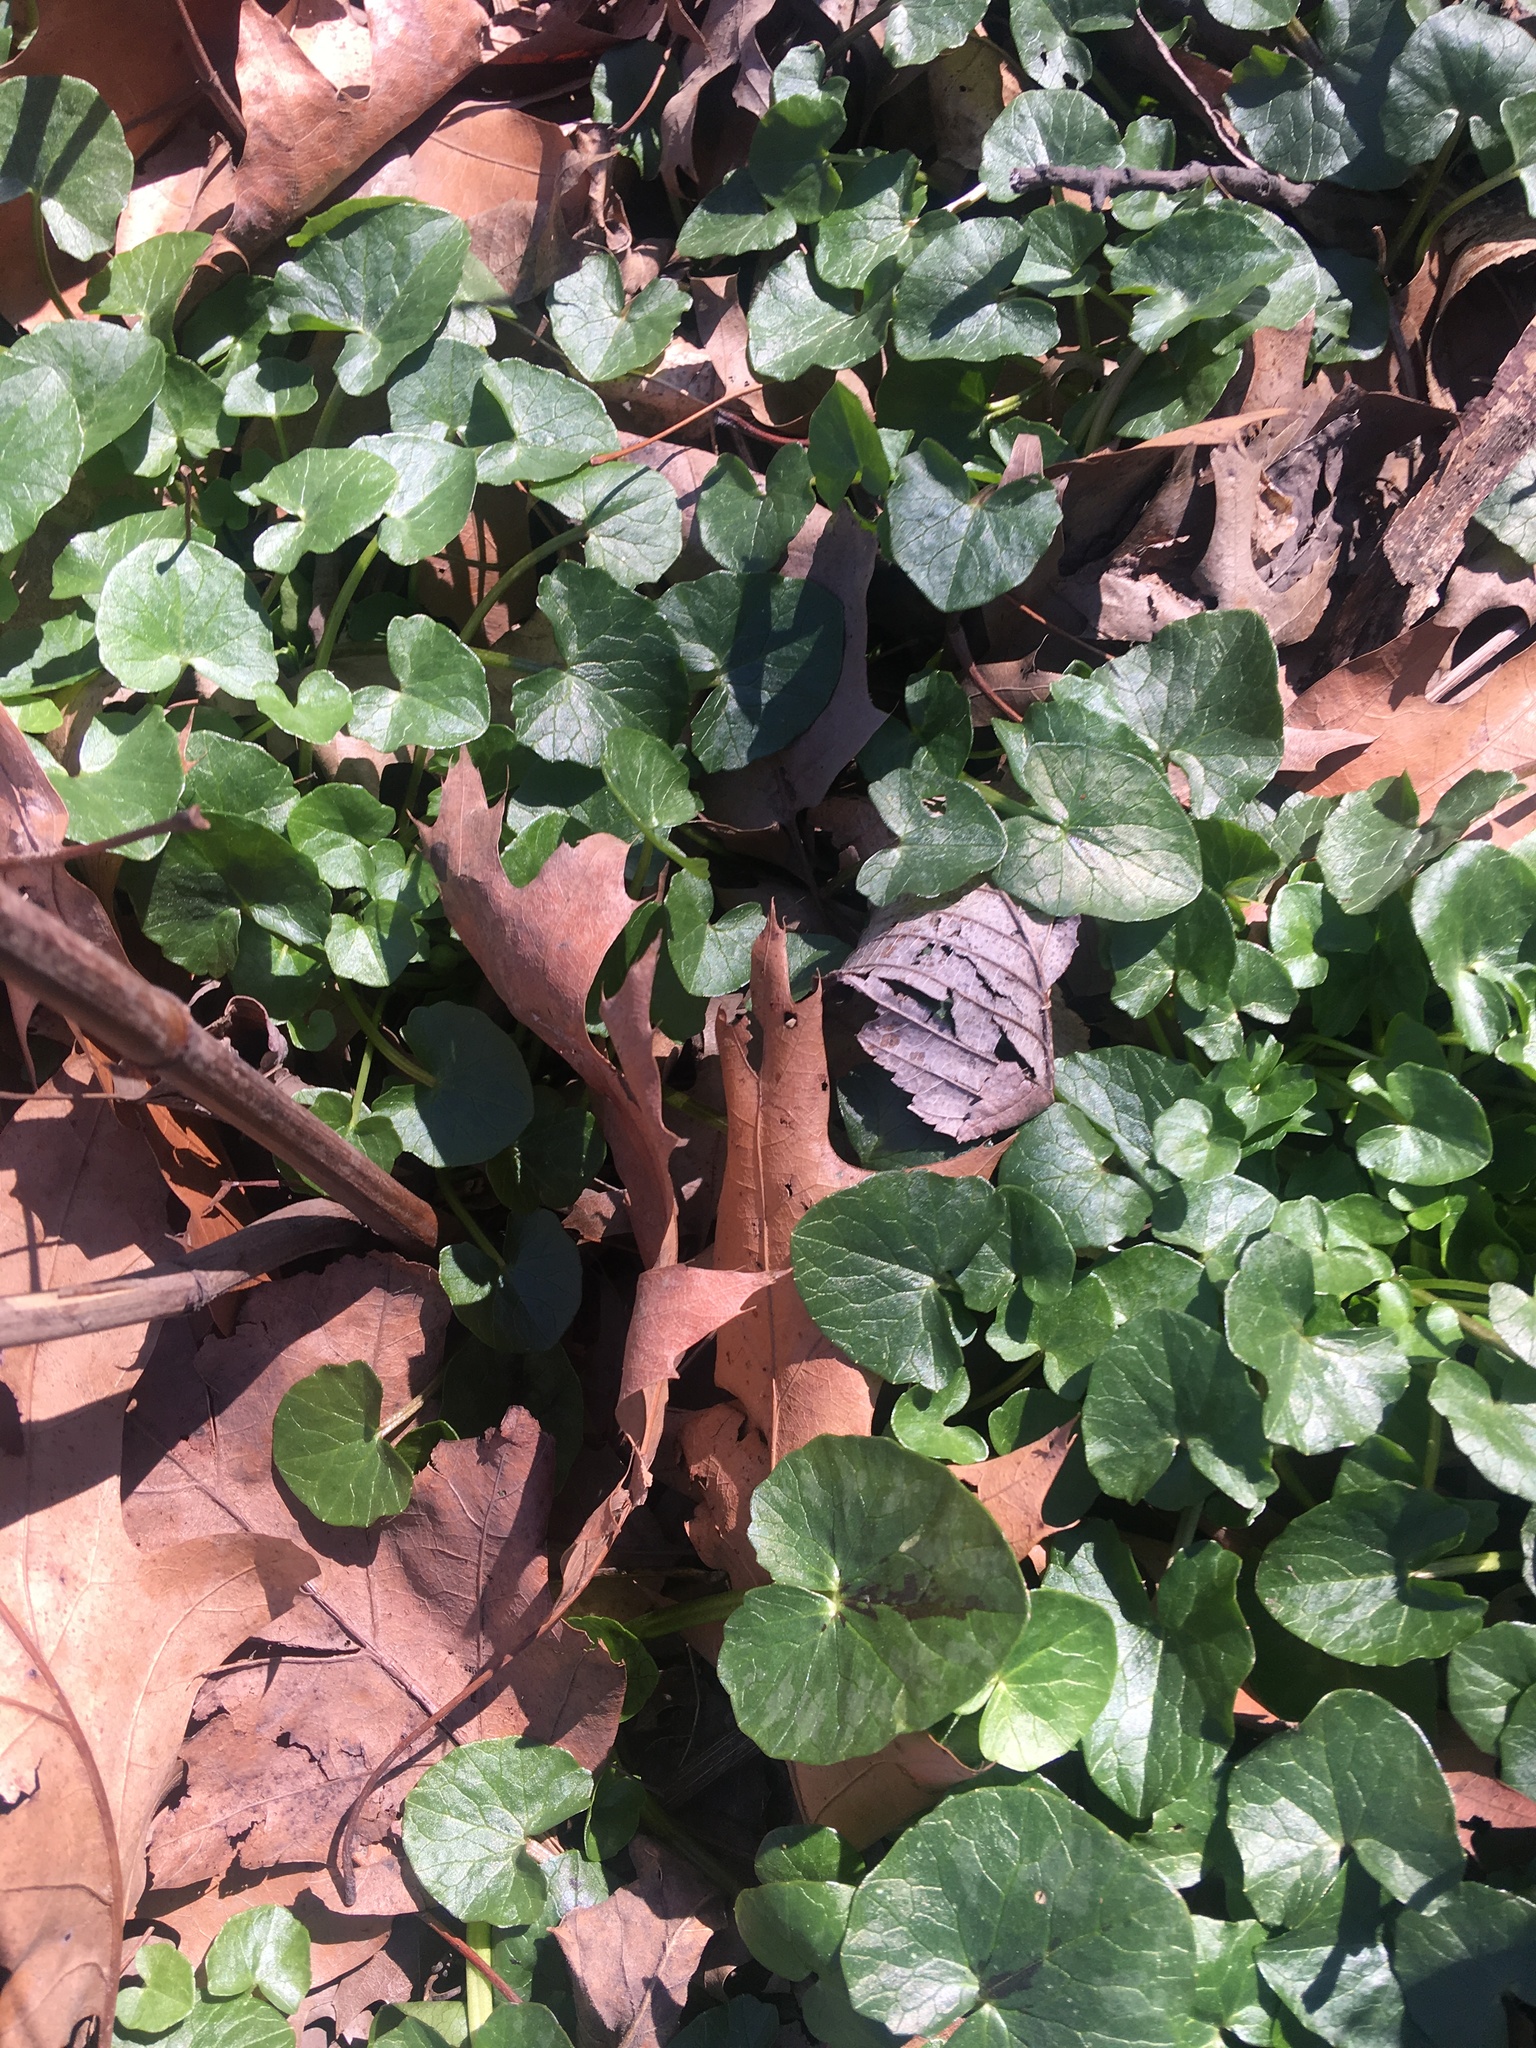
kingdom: Plantae
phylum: Tracheophyta
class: Magnoliopsida
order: Ranunculales
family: Ranunculaceae
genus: Ficaria
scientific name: Ficaria verna
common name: Lesser celandine
